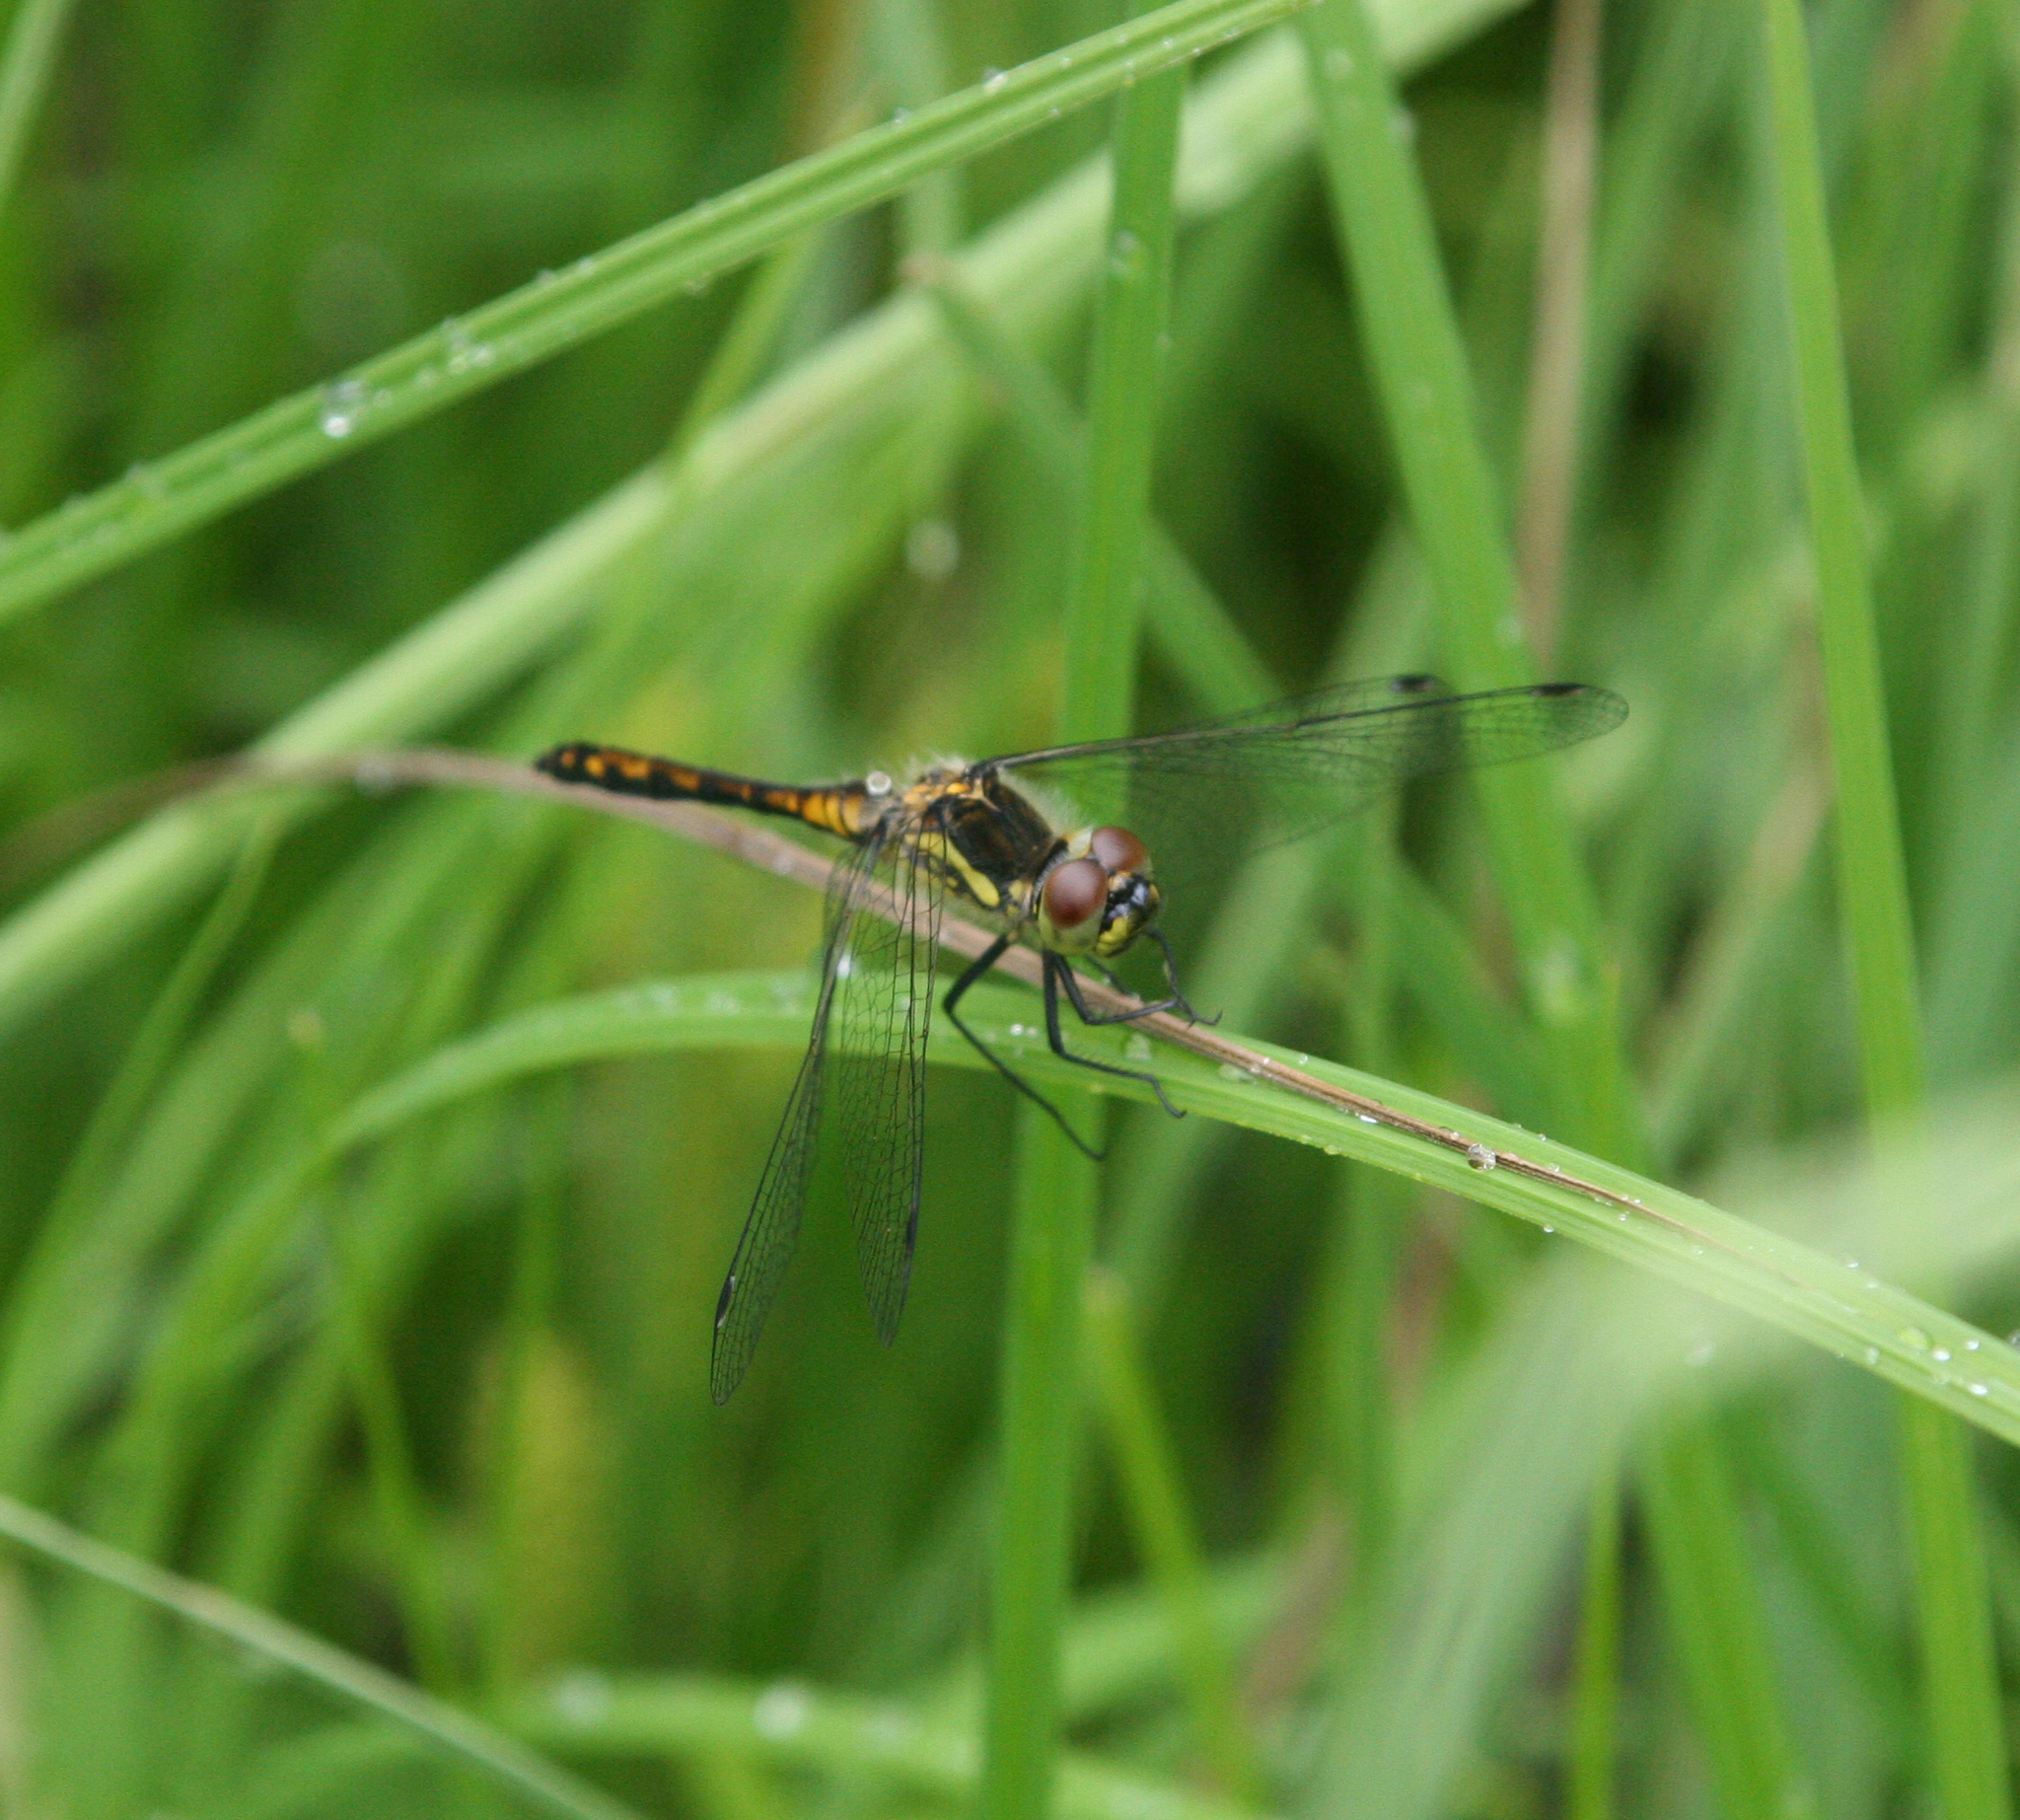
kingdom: Animalia
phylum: Arthropoda
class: Insecta
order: Odonata
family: Libellulidae
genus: Sympetrum
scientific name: Sympetrum danae
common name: Black darter
